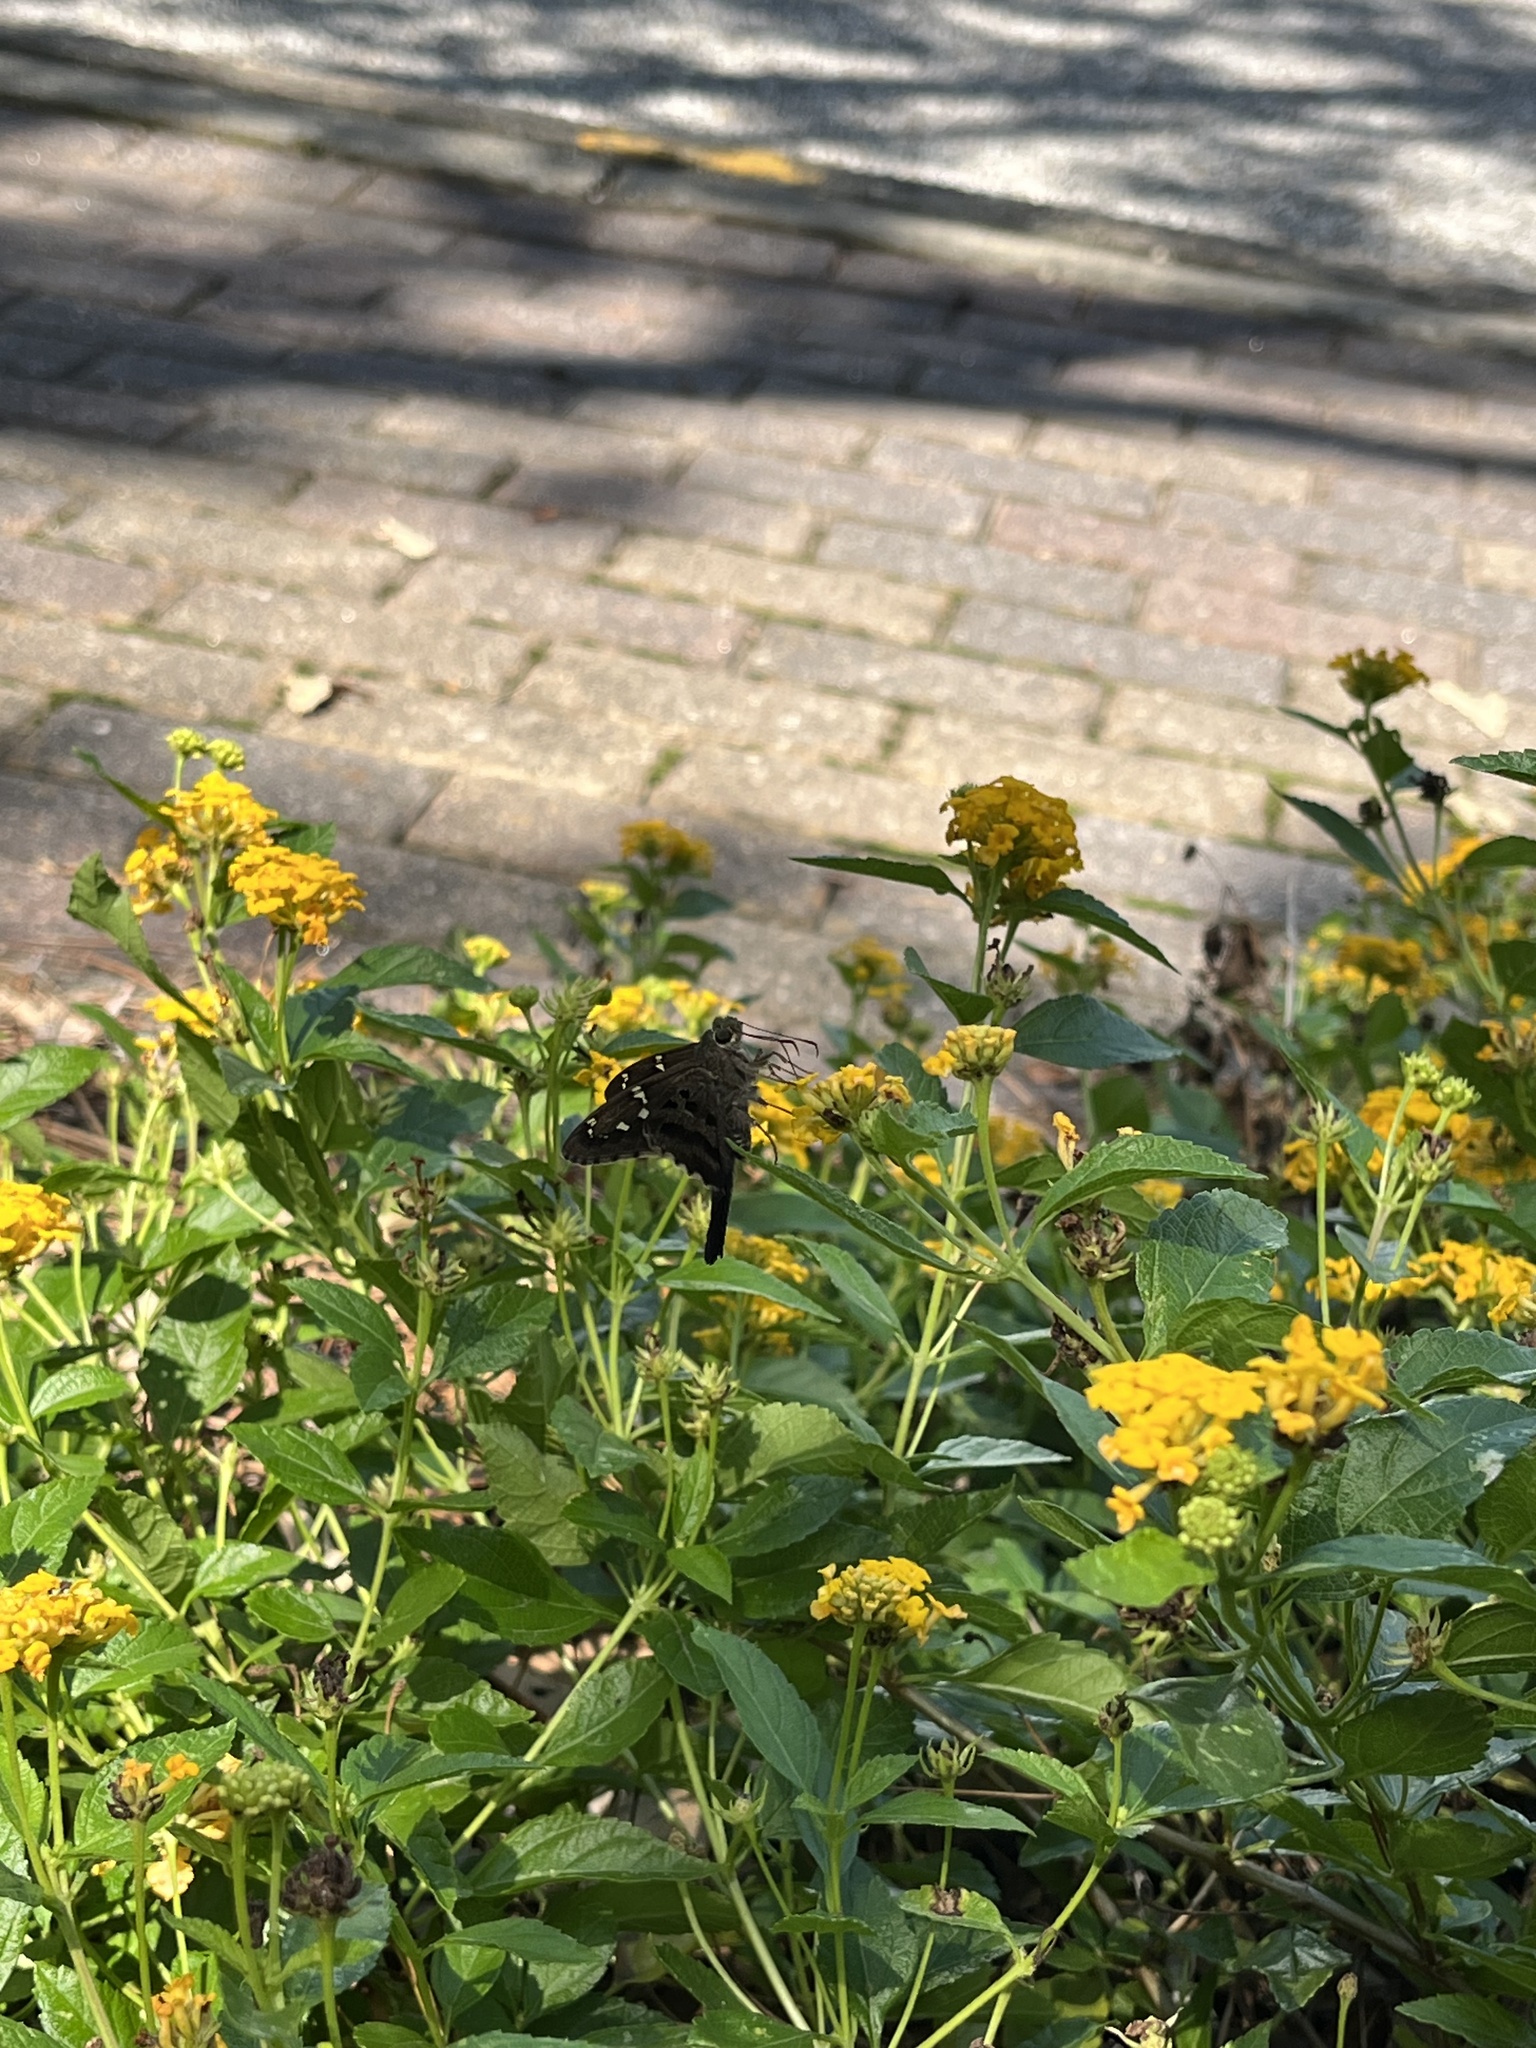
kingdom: Animalia
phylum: Arthropoda
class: Insecta
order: Lepidoptera
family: Hesperiidae
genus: Urbanus
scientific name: Urbanus proteus
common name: Long-tailed skipper
